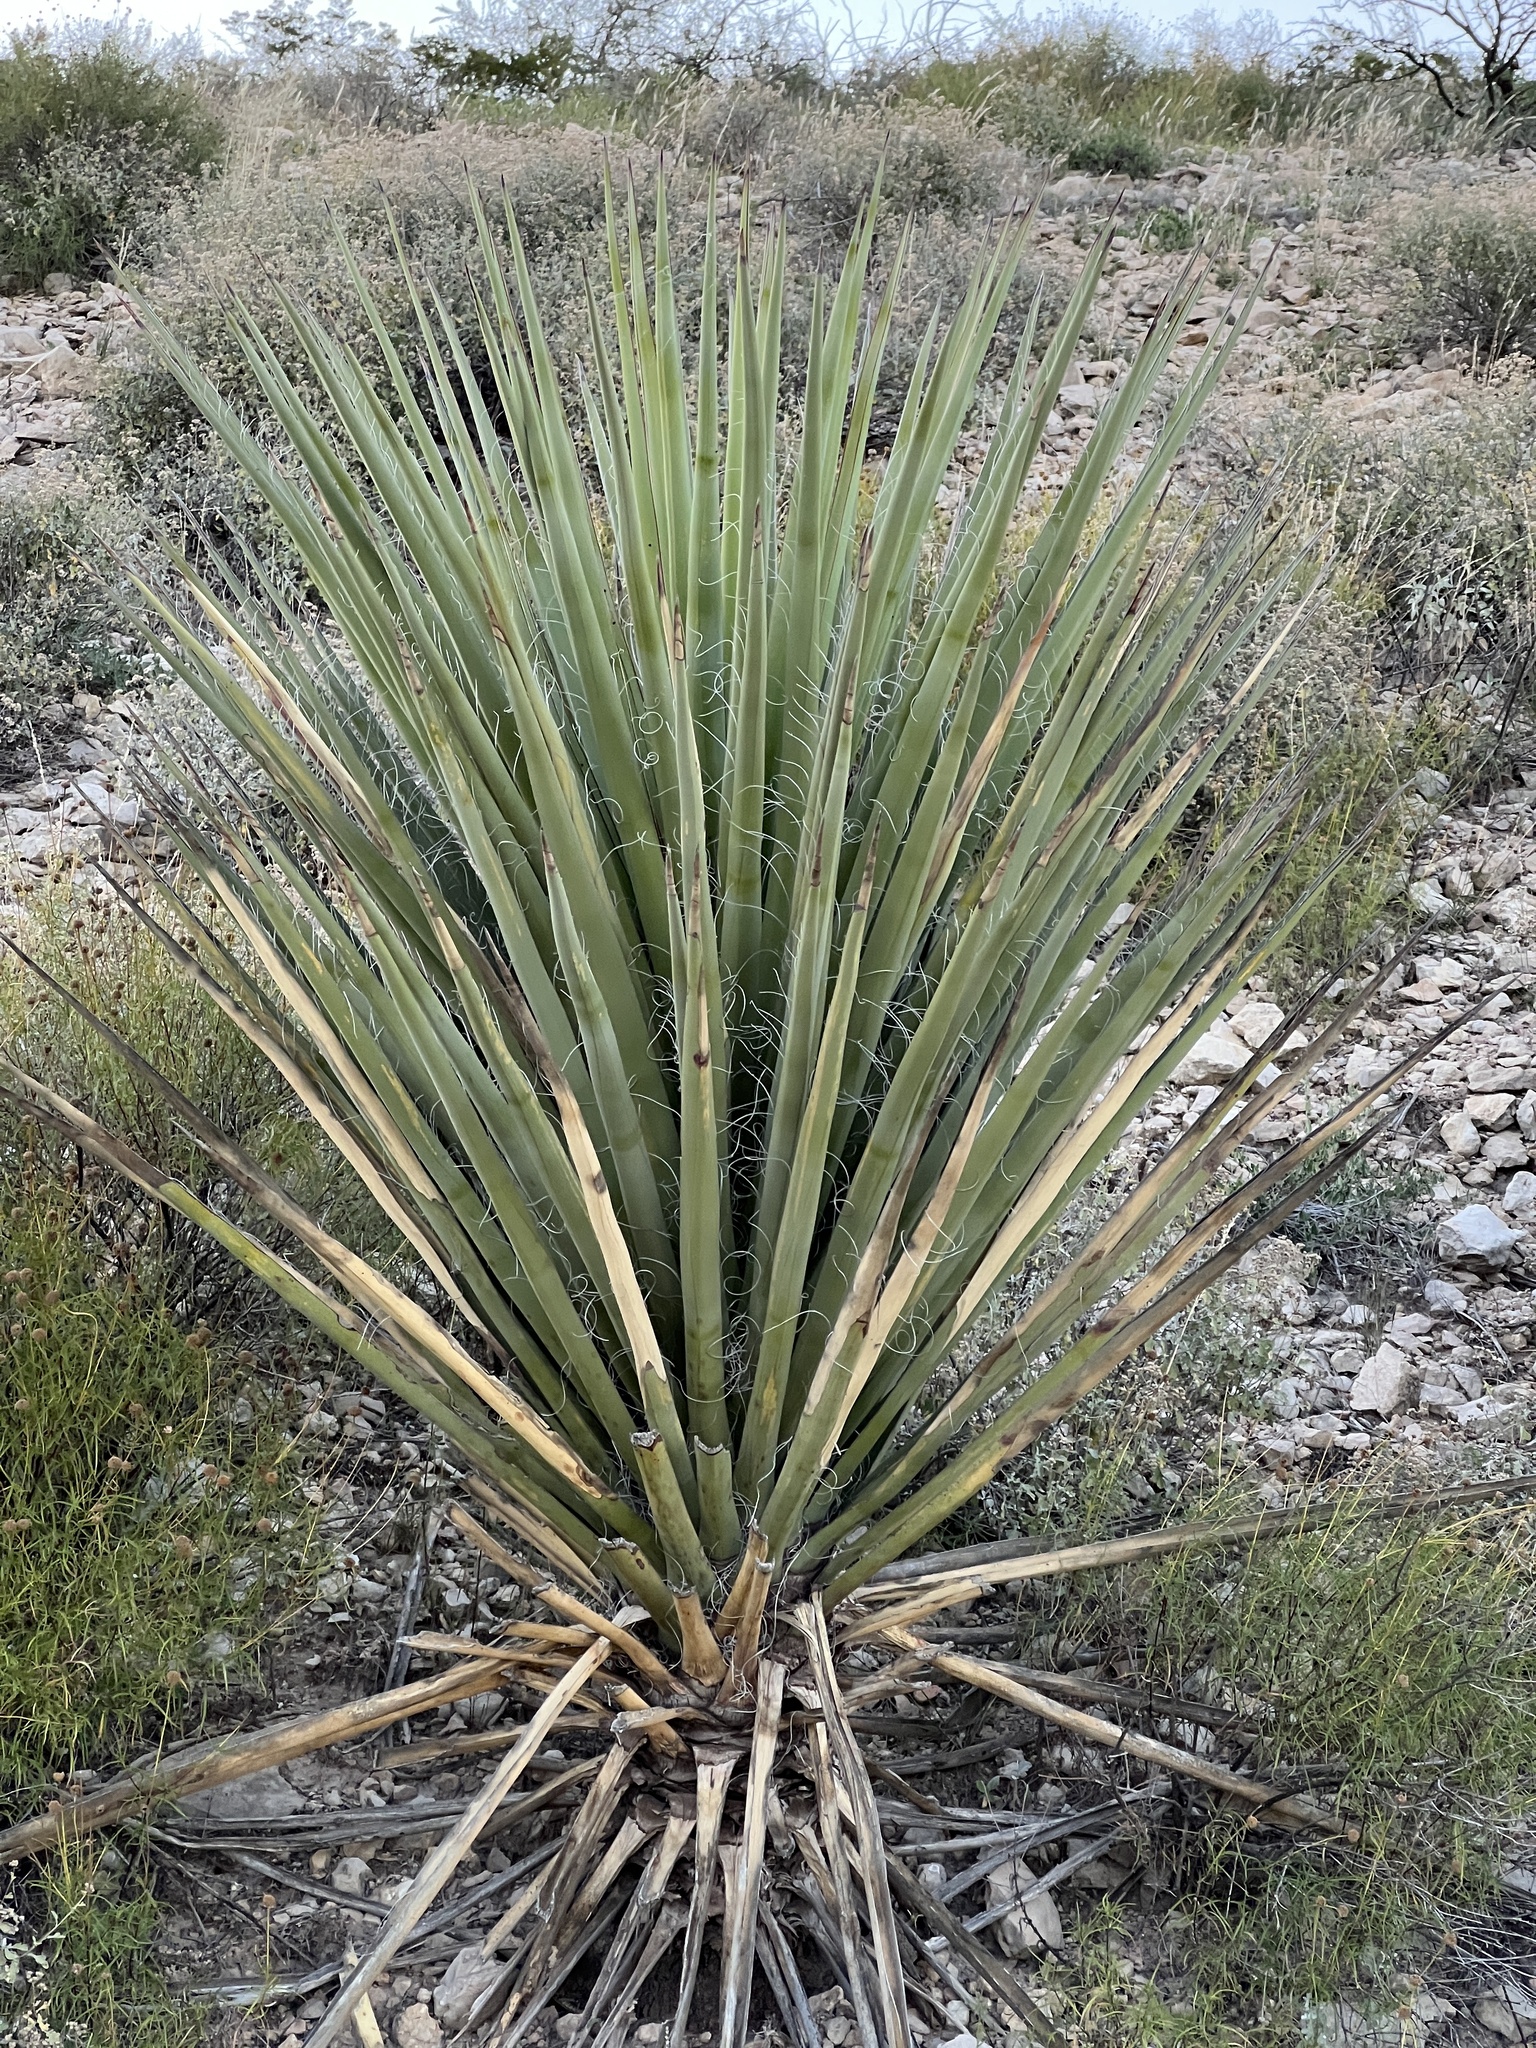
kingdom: Plantae
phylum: Tracheophyta
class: Liliopsida
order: Asparagales
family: Asparagaceae
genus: Yucca
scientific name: Yucca treculiana
